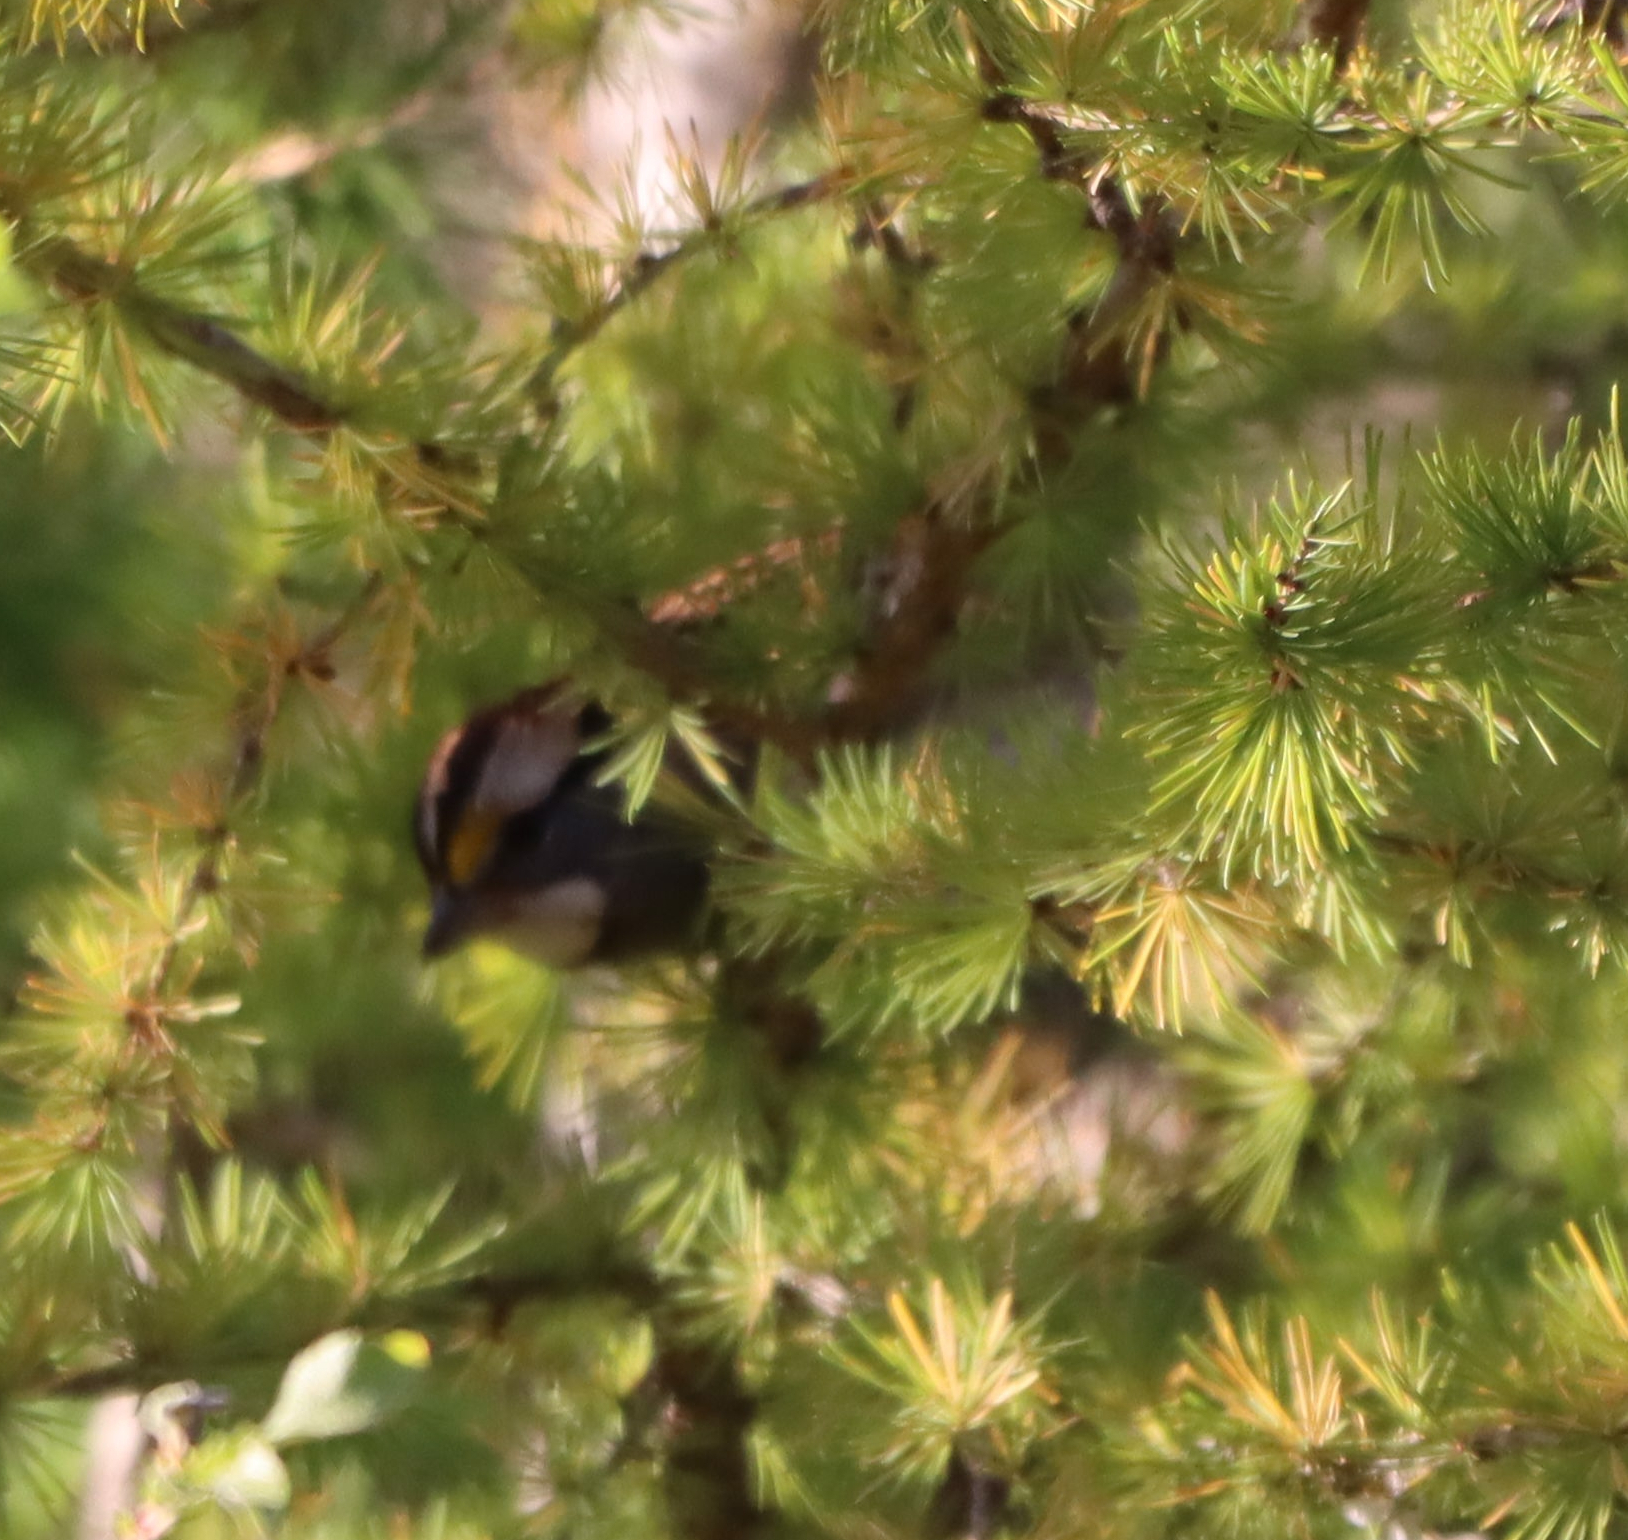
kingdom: Animalia
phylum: Chordata
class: Aves
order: Passeriformes
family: Passerellidae
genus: Zonotrichia
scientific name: Zonotrichia albicollis
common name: White-throated sparrow
